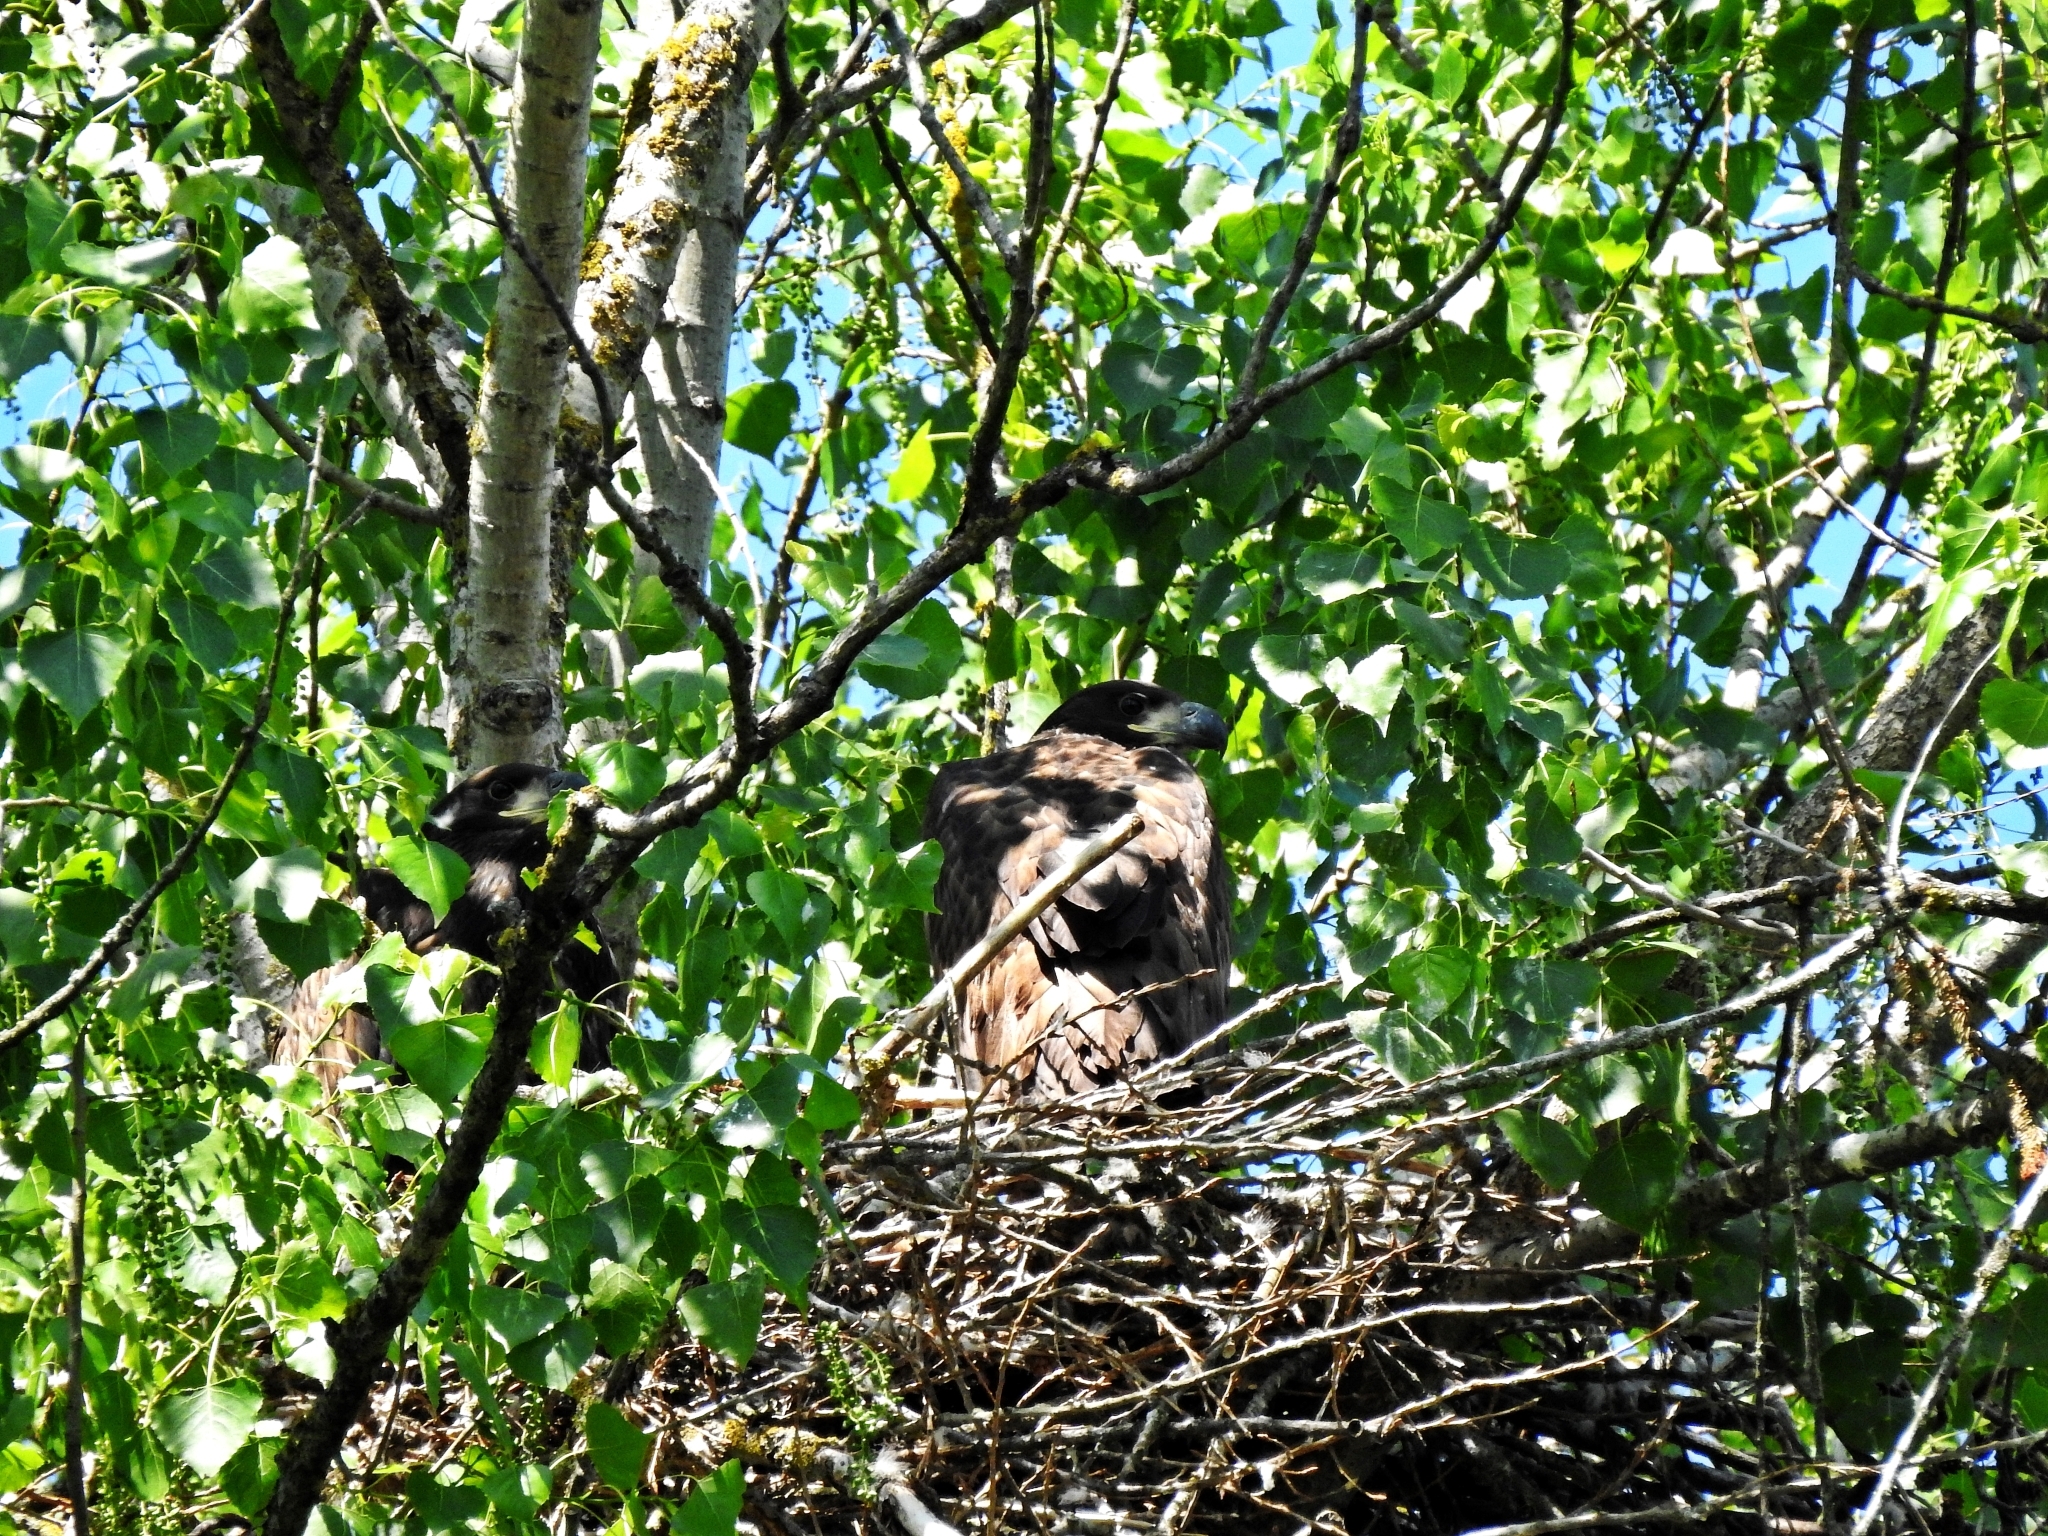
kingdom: Animalia
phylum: Chordata
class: Aves
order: Accipitriformes
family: Accipitridae
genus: Haliaeetus
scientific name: Haliaeetus albicilla
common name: White-tailed eagle
